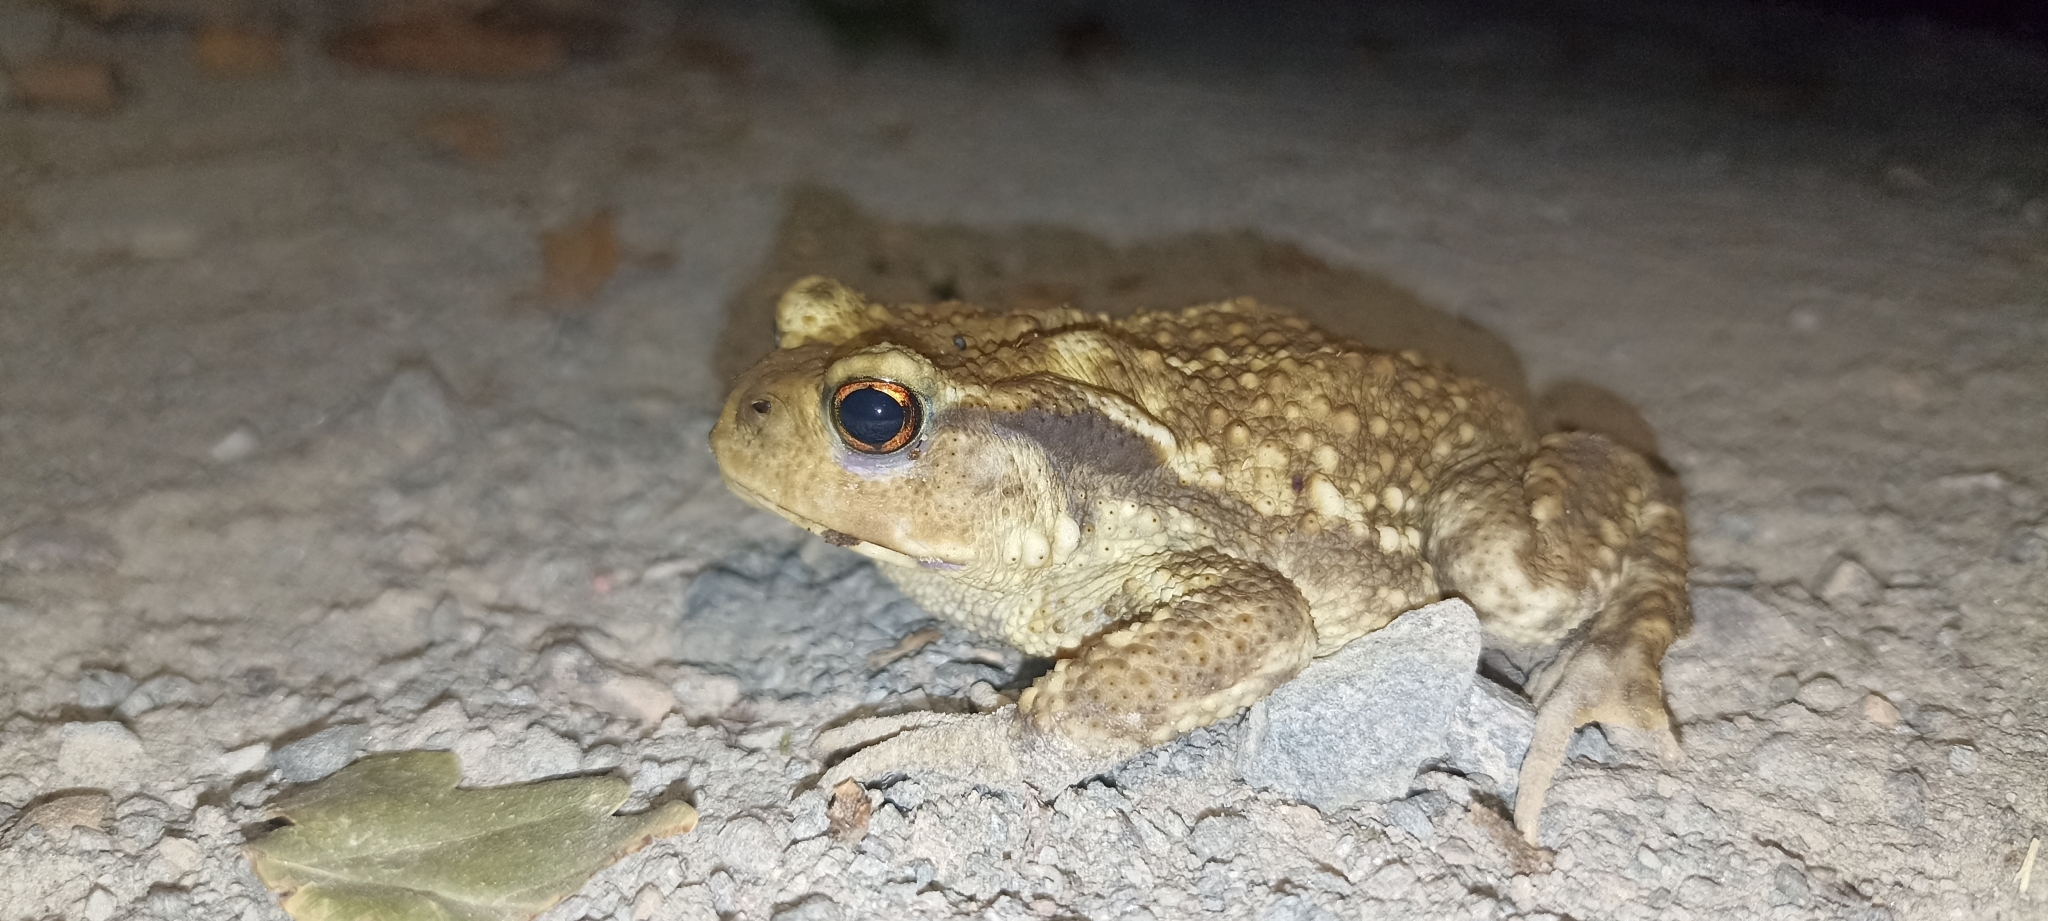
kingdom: Animalia
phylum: Chordata
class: Amphibia
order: Anura
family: Bufonidae
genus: Bufo
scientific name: Bufo spinosus
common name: Western common toad
